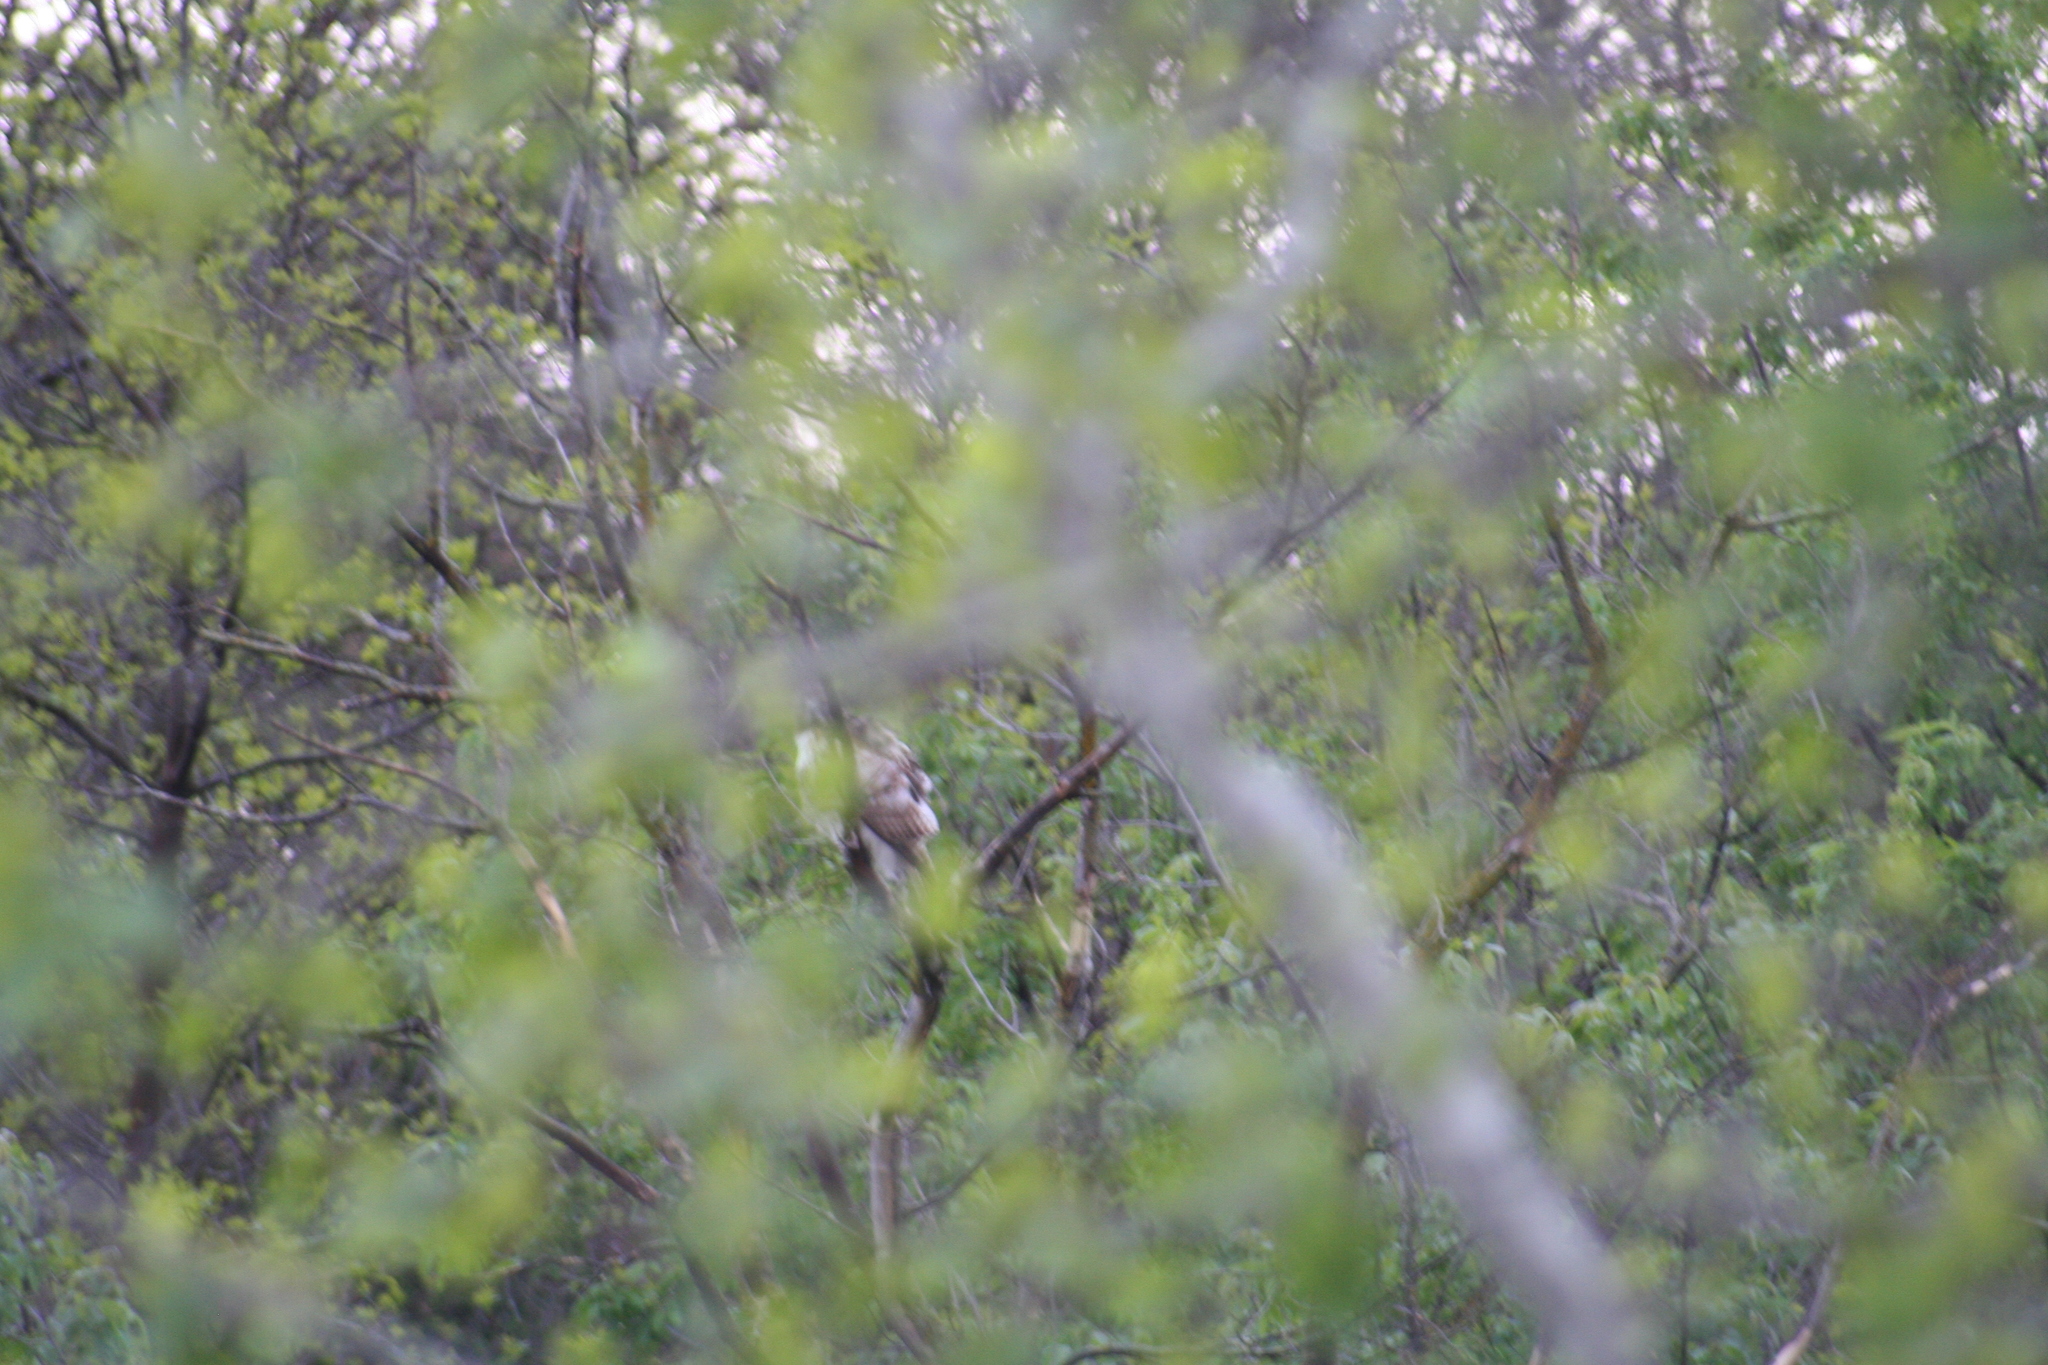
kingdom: Animalia
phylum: Chordata
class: Aves
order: Accipitriformes
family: Accipitridae
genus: Buteo
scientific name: Buteo jamaicensis
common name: Red-tailed hawk
